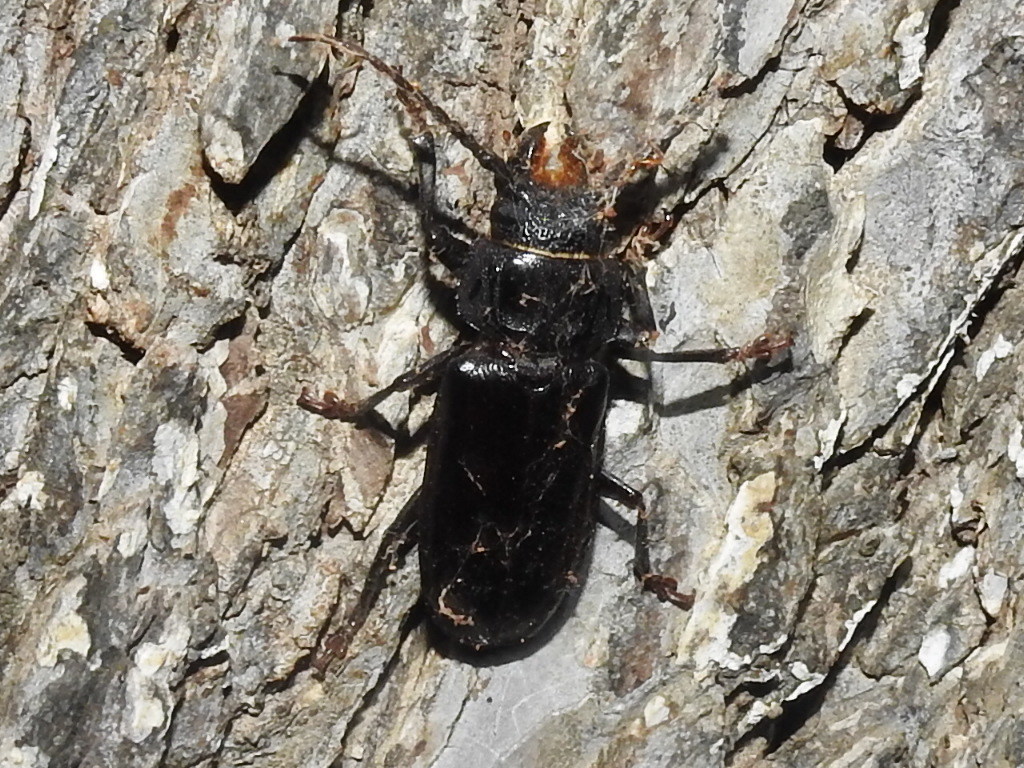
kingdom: Animalia
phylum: Arthropoda
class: Insecta
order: Coleoptera
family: Cerambycidae
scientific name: Cerambycidae
